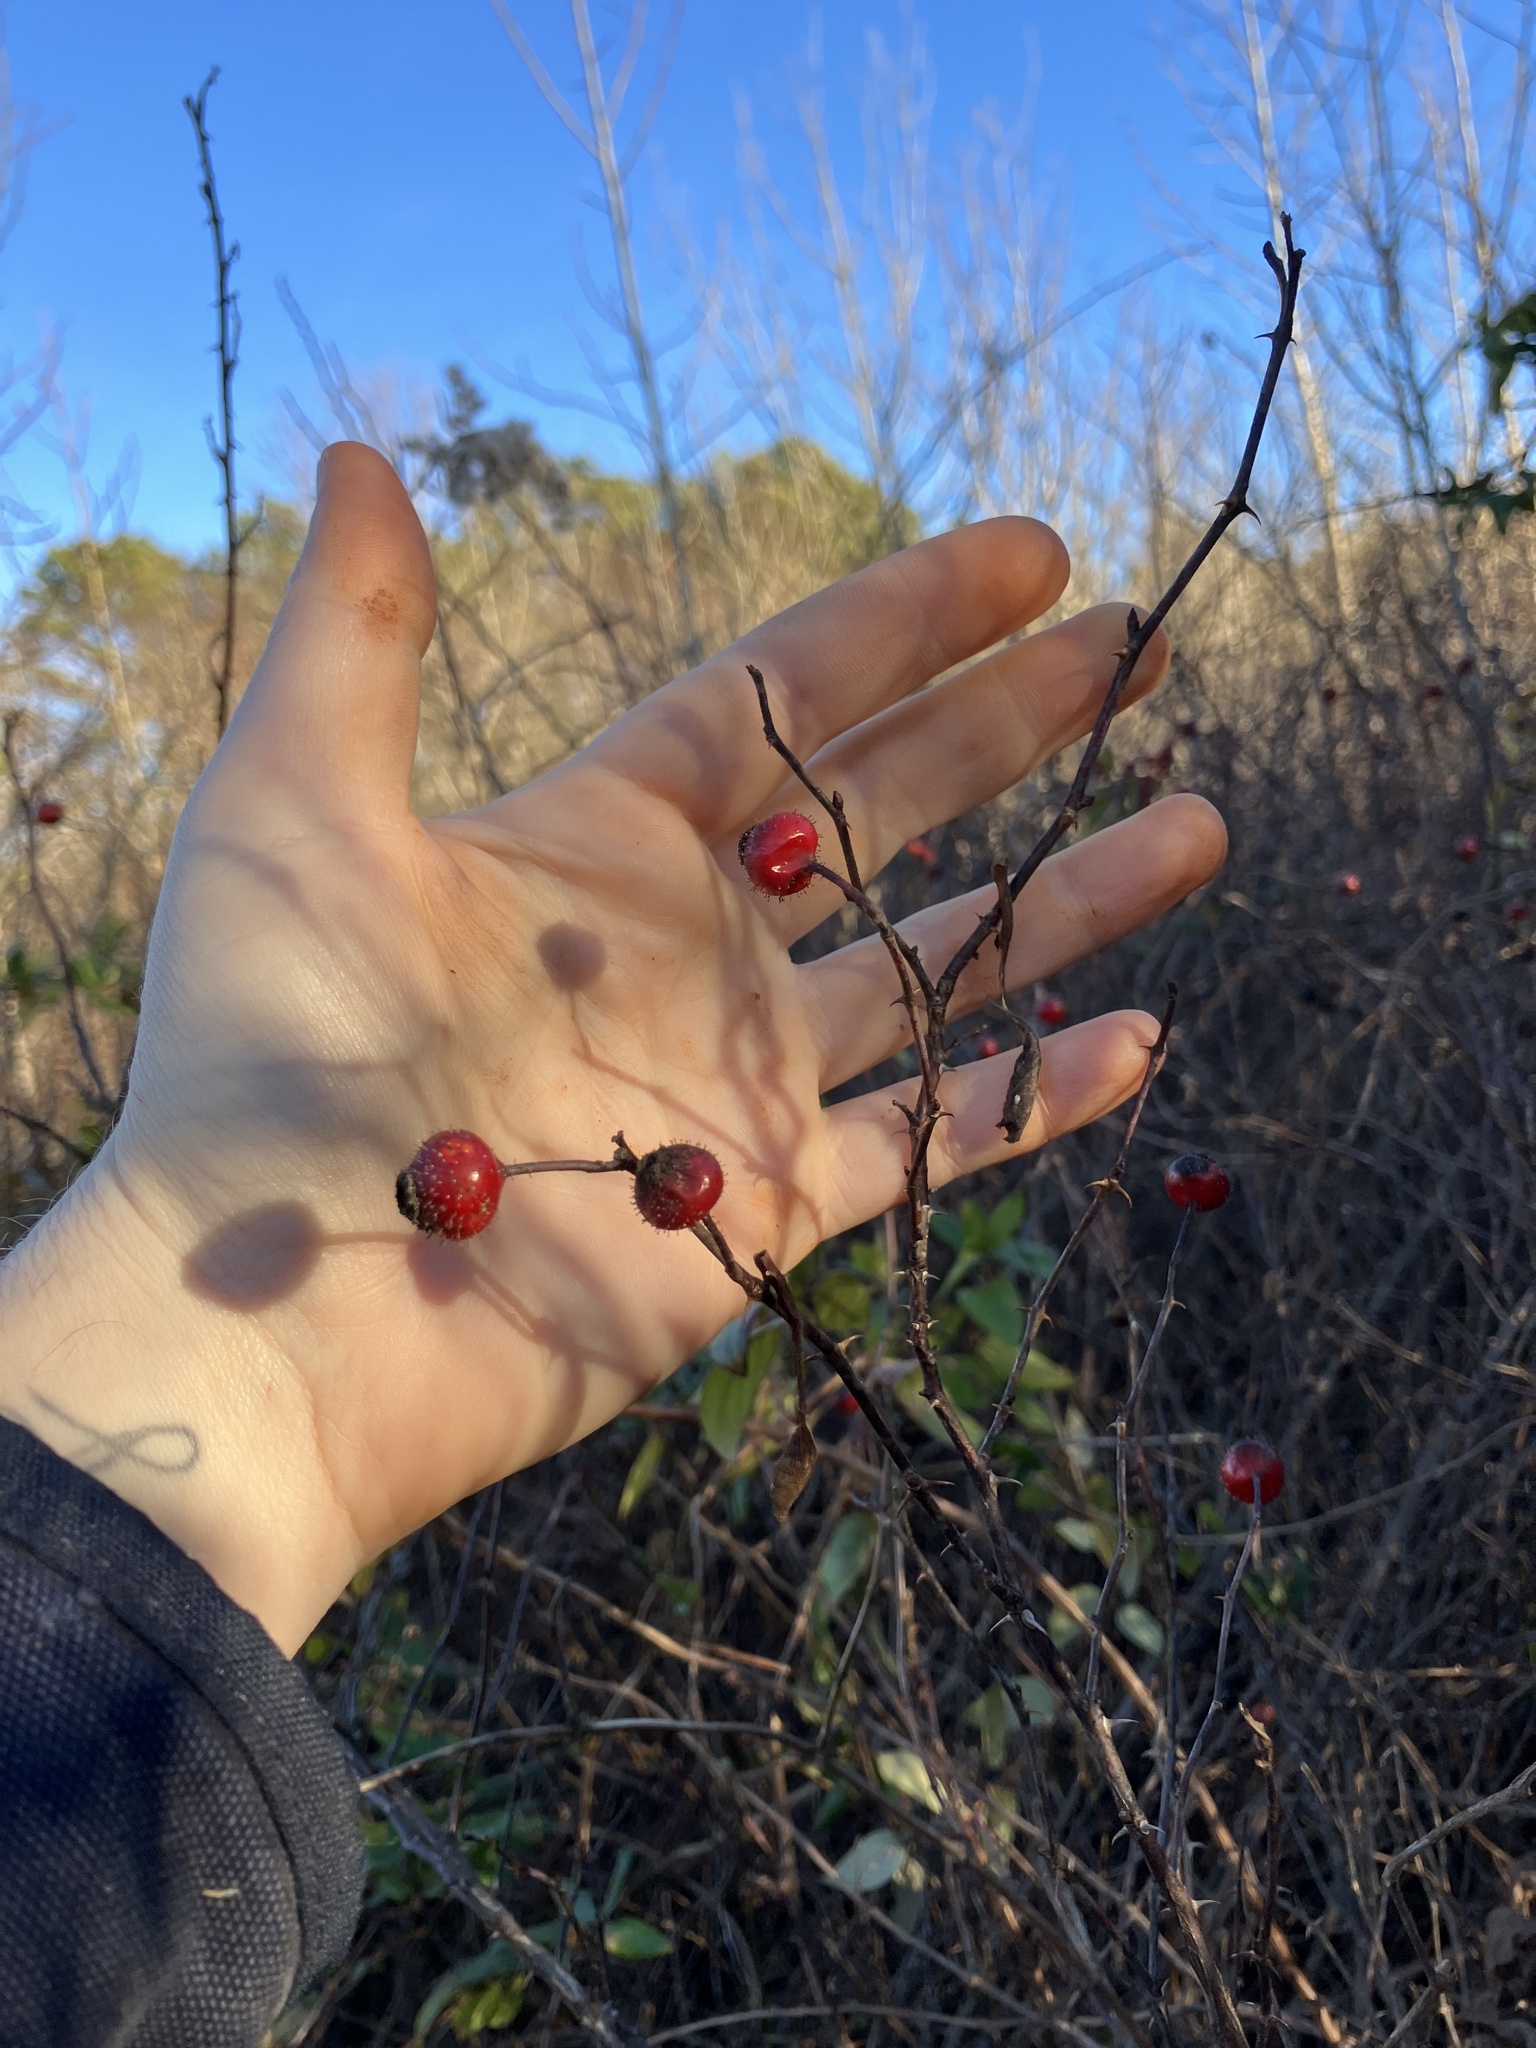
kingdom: Plantae
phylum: Tracheophyta
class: Magnoliopsida
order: Rosales
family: Rosaceae
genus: Rosa
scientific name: Rosa palustris
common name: Swamp rose
